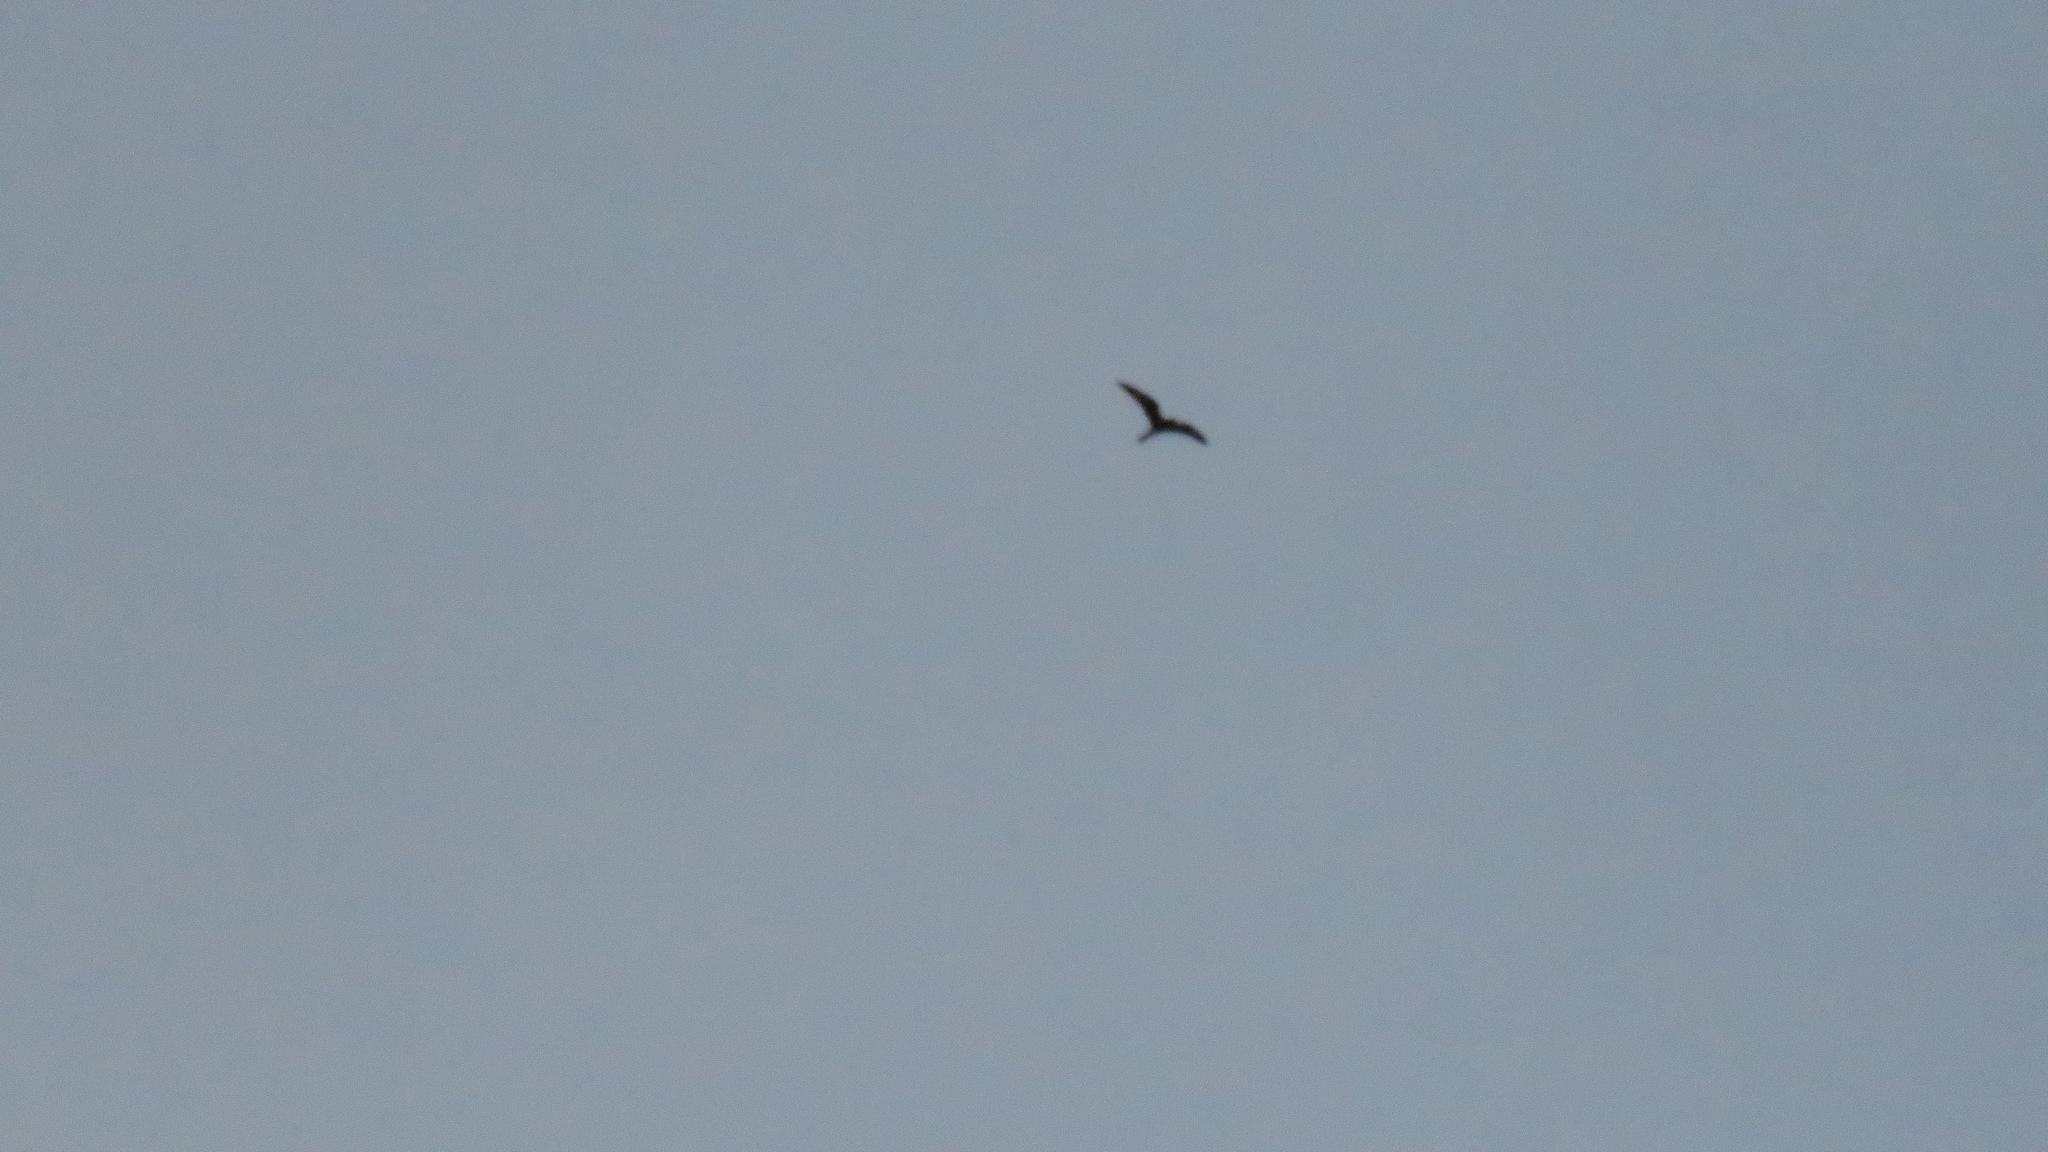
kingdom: Animalia
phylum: Chordata
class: Aves
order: Caprimulgiformes
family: Caprimulgidae
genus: Chordeiles
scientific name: Chordeiles minor
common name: Common nighthawk
